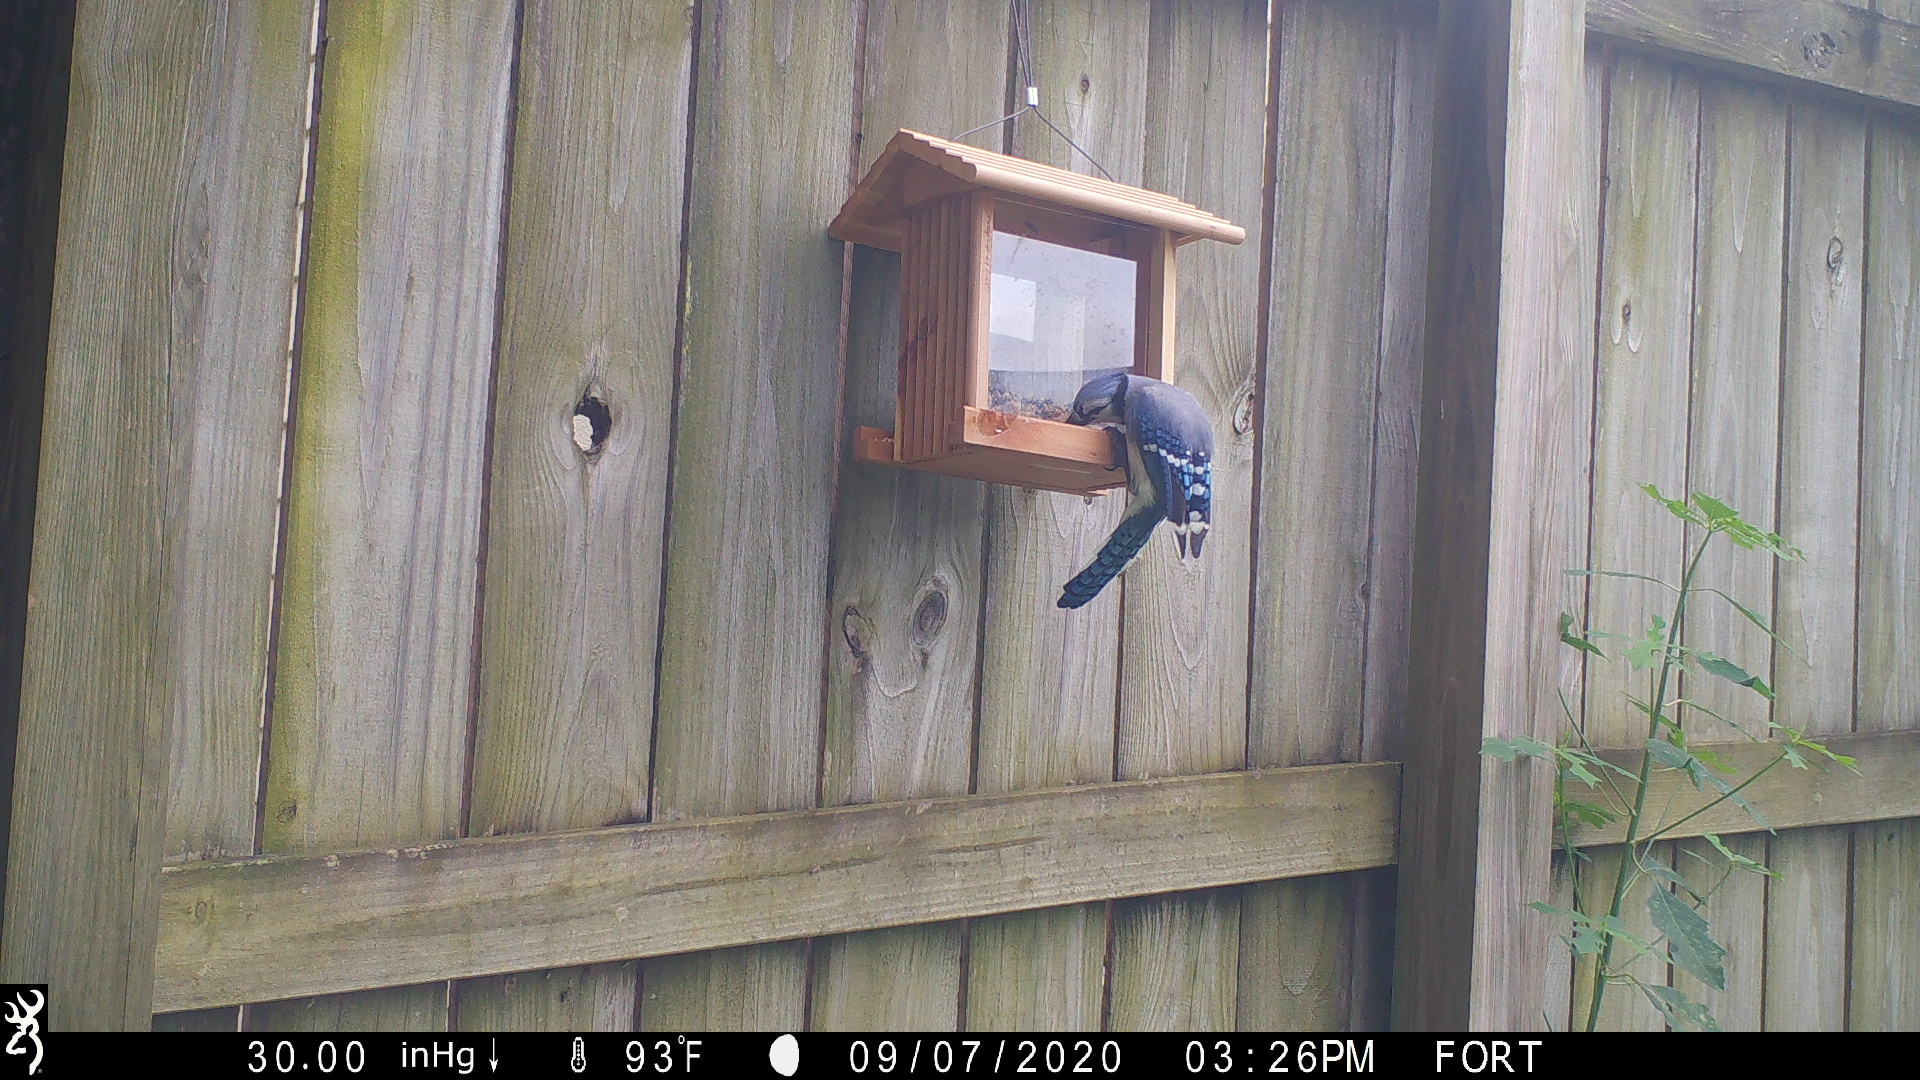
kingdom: Animalia
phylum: Chordata
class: Aves
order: Passeriformes
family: Corvidae
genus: Cyanocitta
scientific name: Cyanocitta cristata
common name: Blue jay
